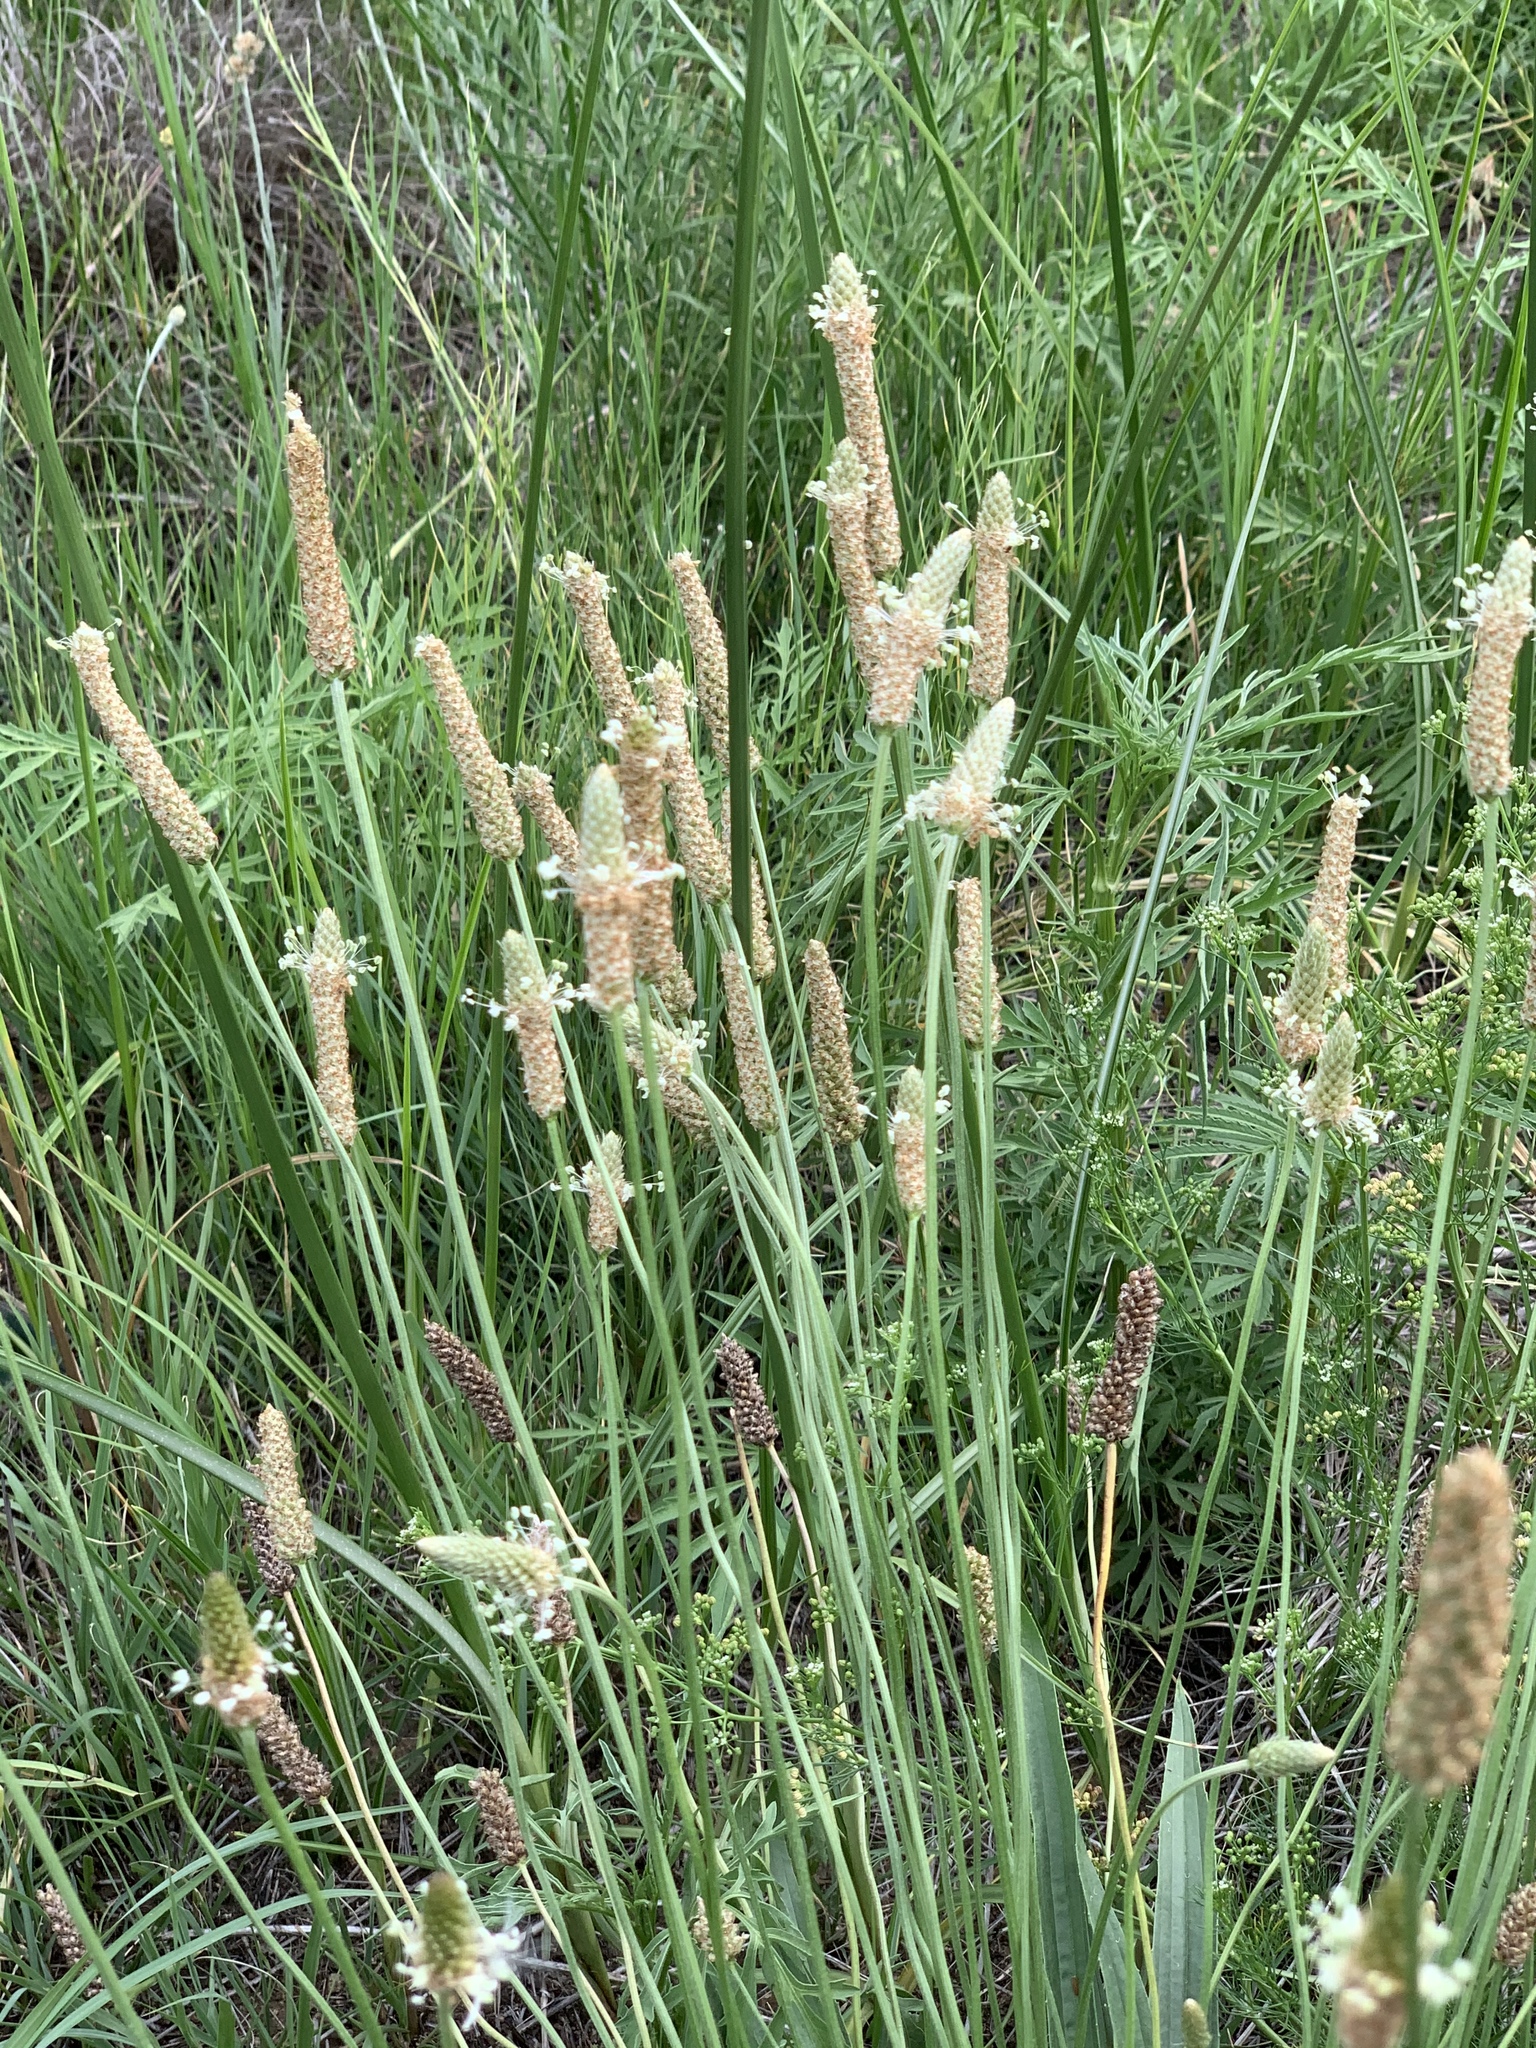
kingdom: Plantae
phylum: Tracheophyta
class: Magnoliopsida
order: Lamiales
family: Plantaginaceae
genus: Plantago
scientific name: Plantago lanceolata
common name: Ribwort plantain
